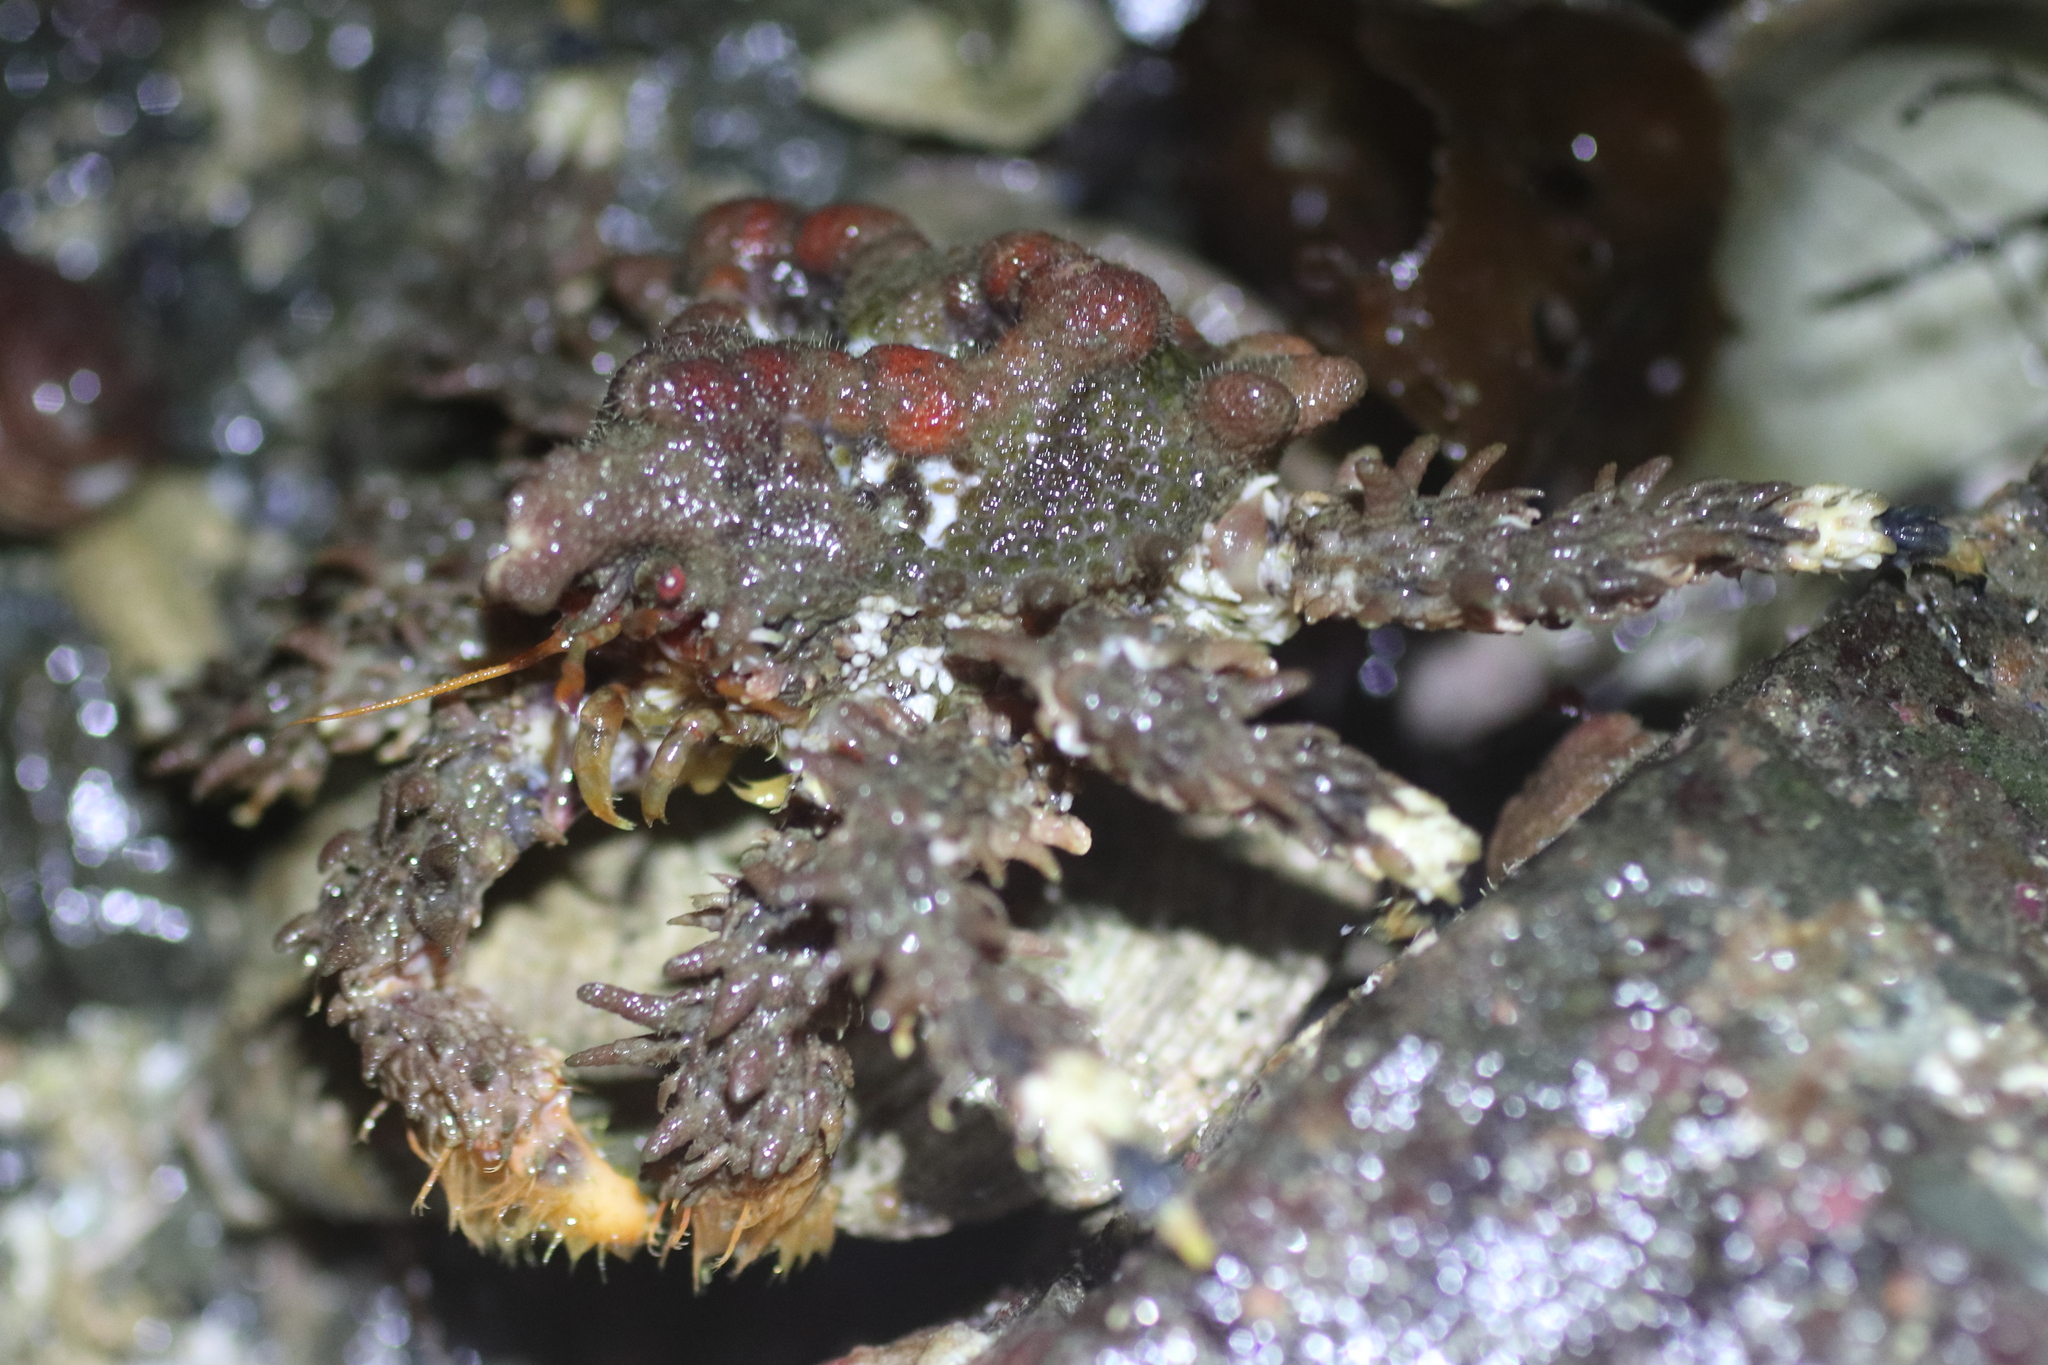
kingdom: Animalia
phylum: Arthropoda
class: Malacostraca
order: Decapoda
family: Lithodidae
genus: Phyllolithodes
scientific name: Phyllolithodes papillosus
